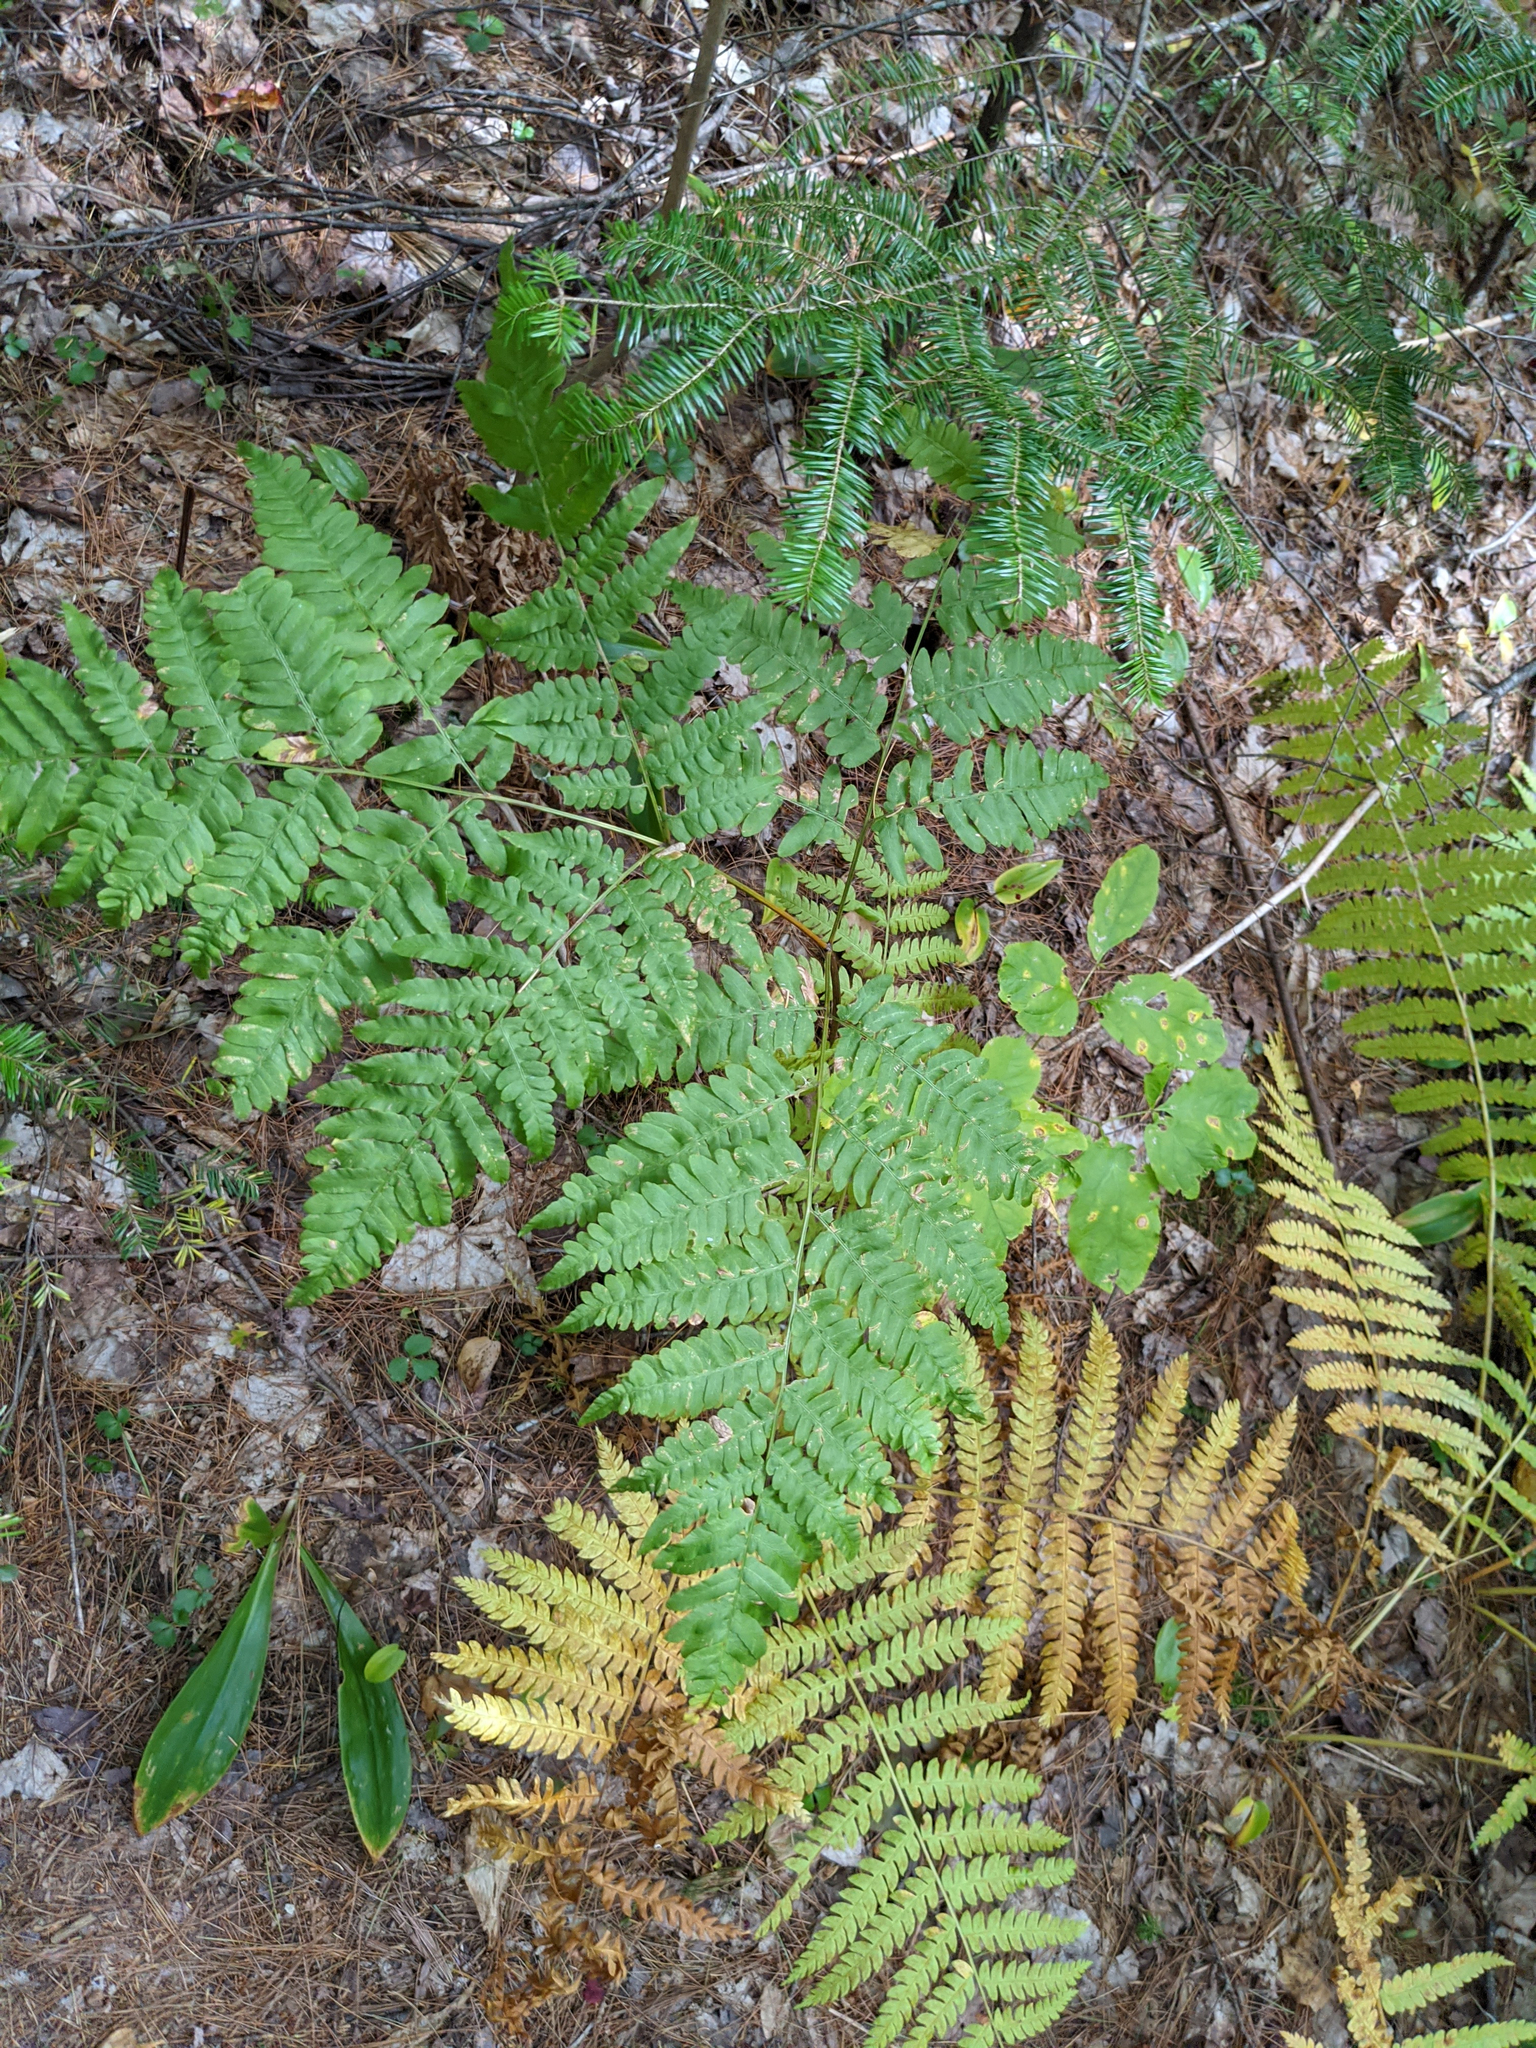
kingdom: Plantae
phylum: Tracheophyta
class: Pinopsida
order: Pinales
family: Pinaceae
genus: Abies
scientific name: Abies balsamea
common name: Balsam fir
